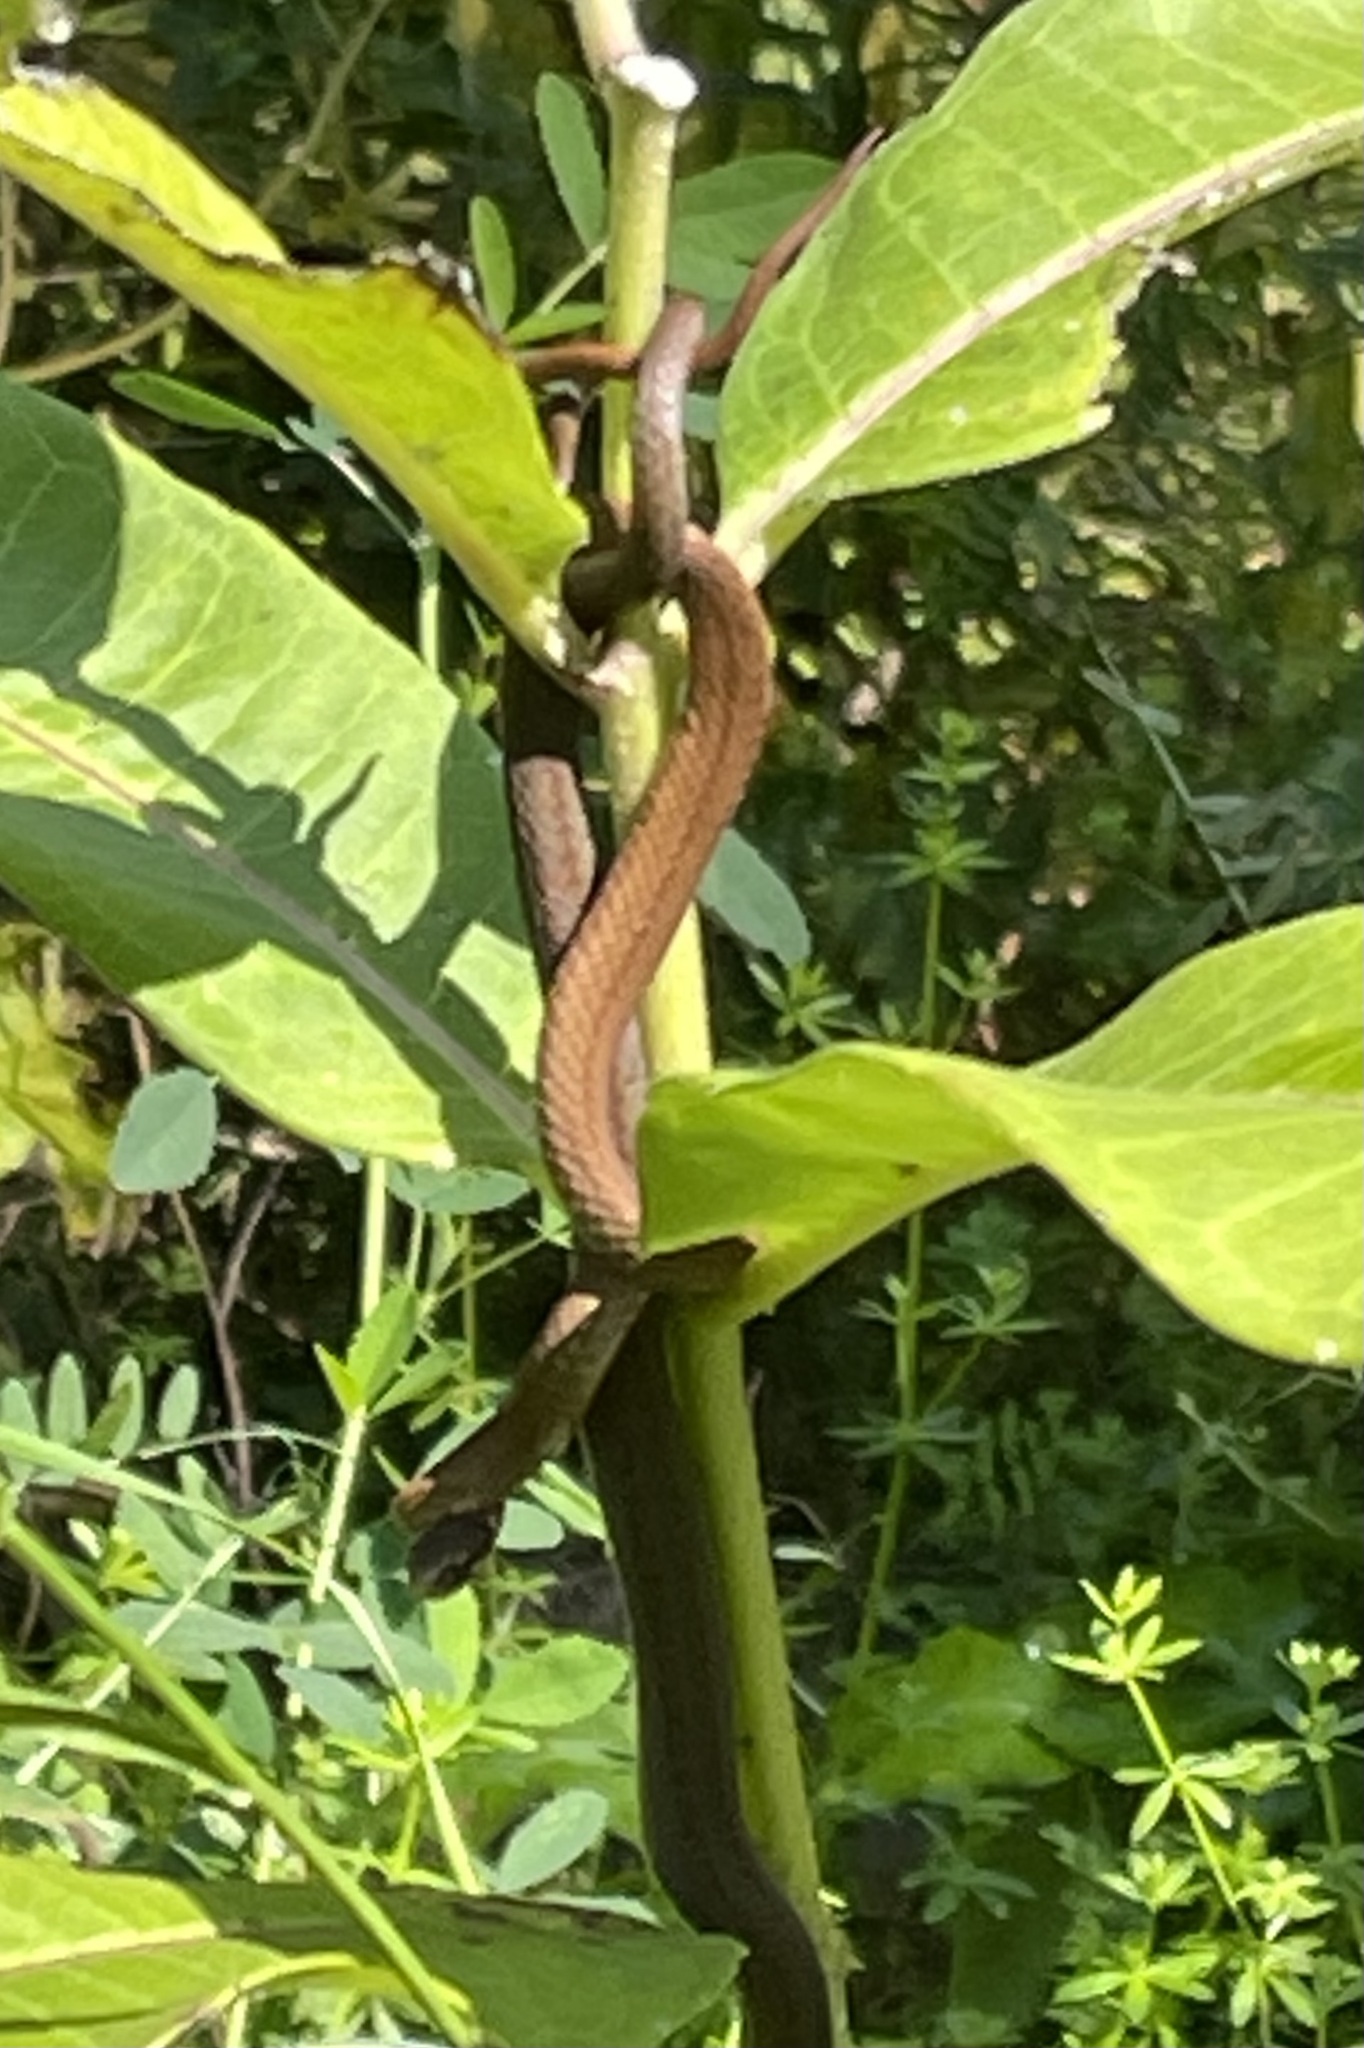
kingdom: Animalia
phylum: Chordata
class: Squamata
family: Colubridae
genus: Storeria
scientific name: Storeria occipitomaculata
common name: Redbelly snake
